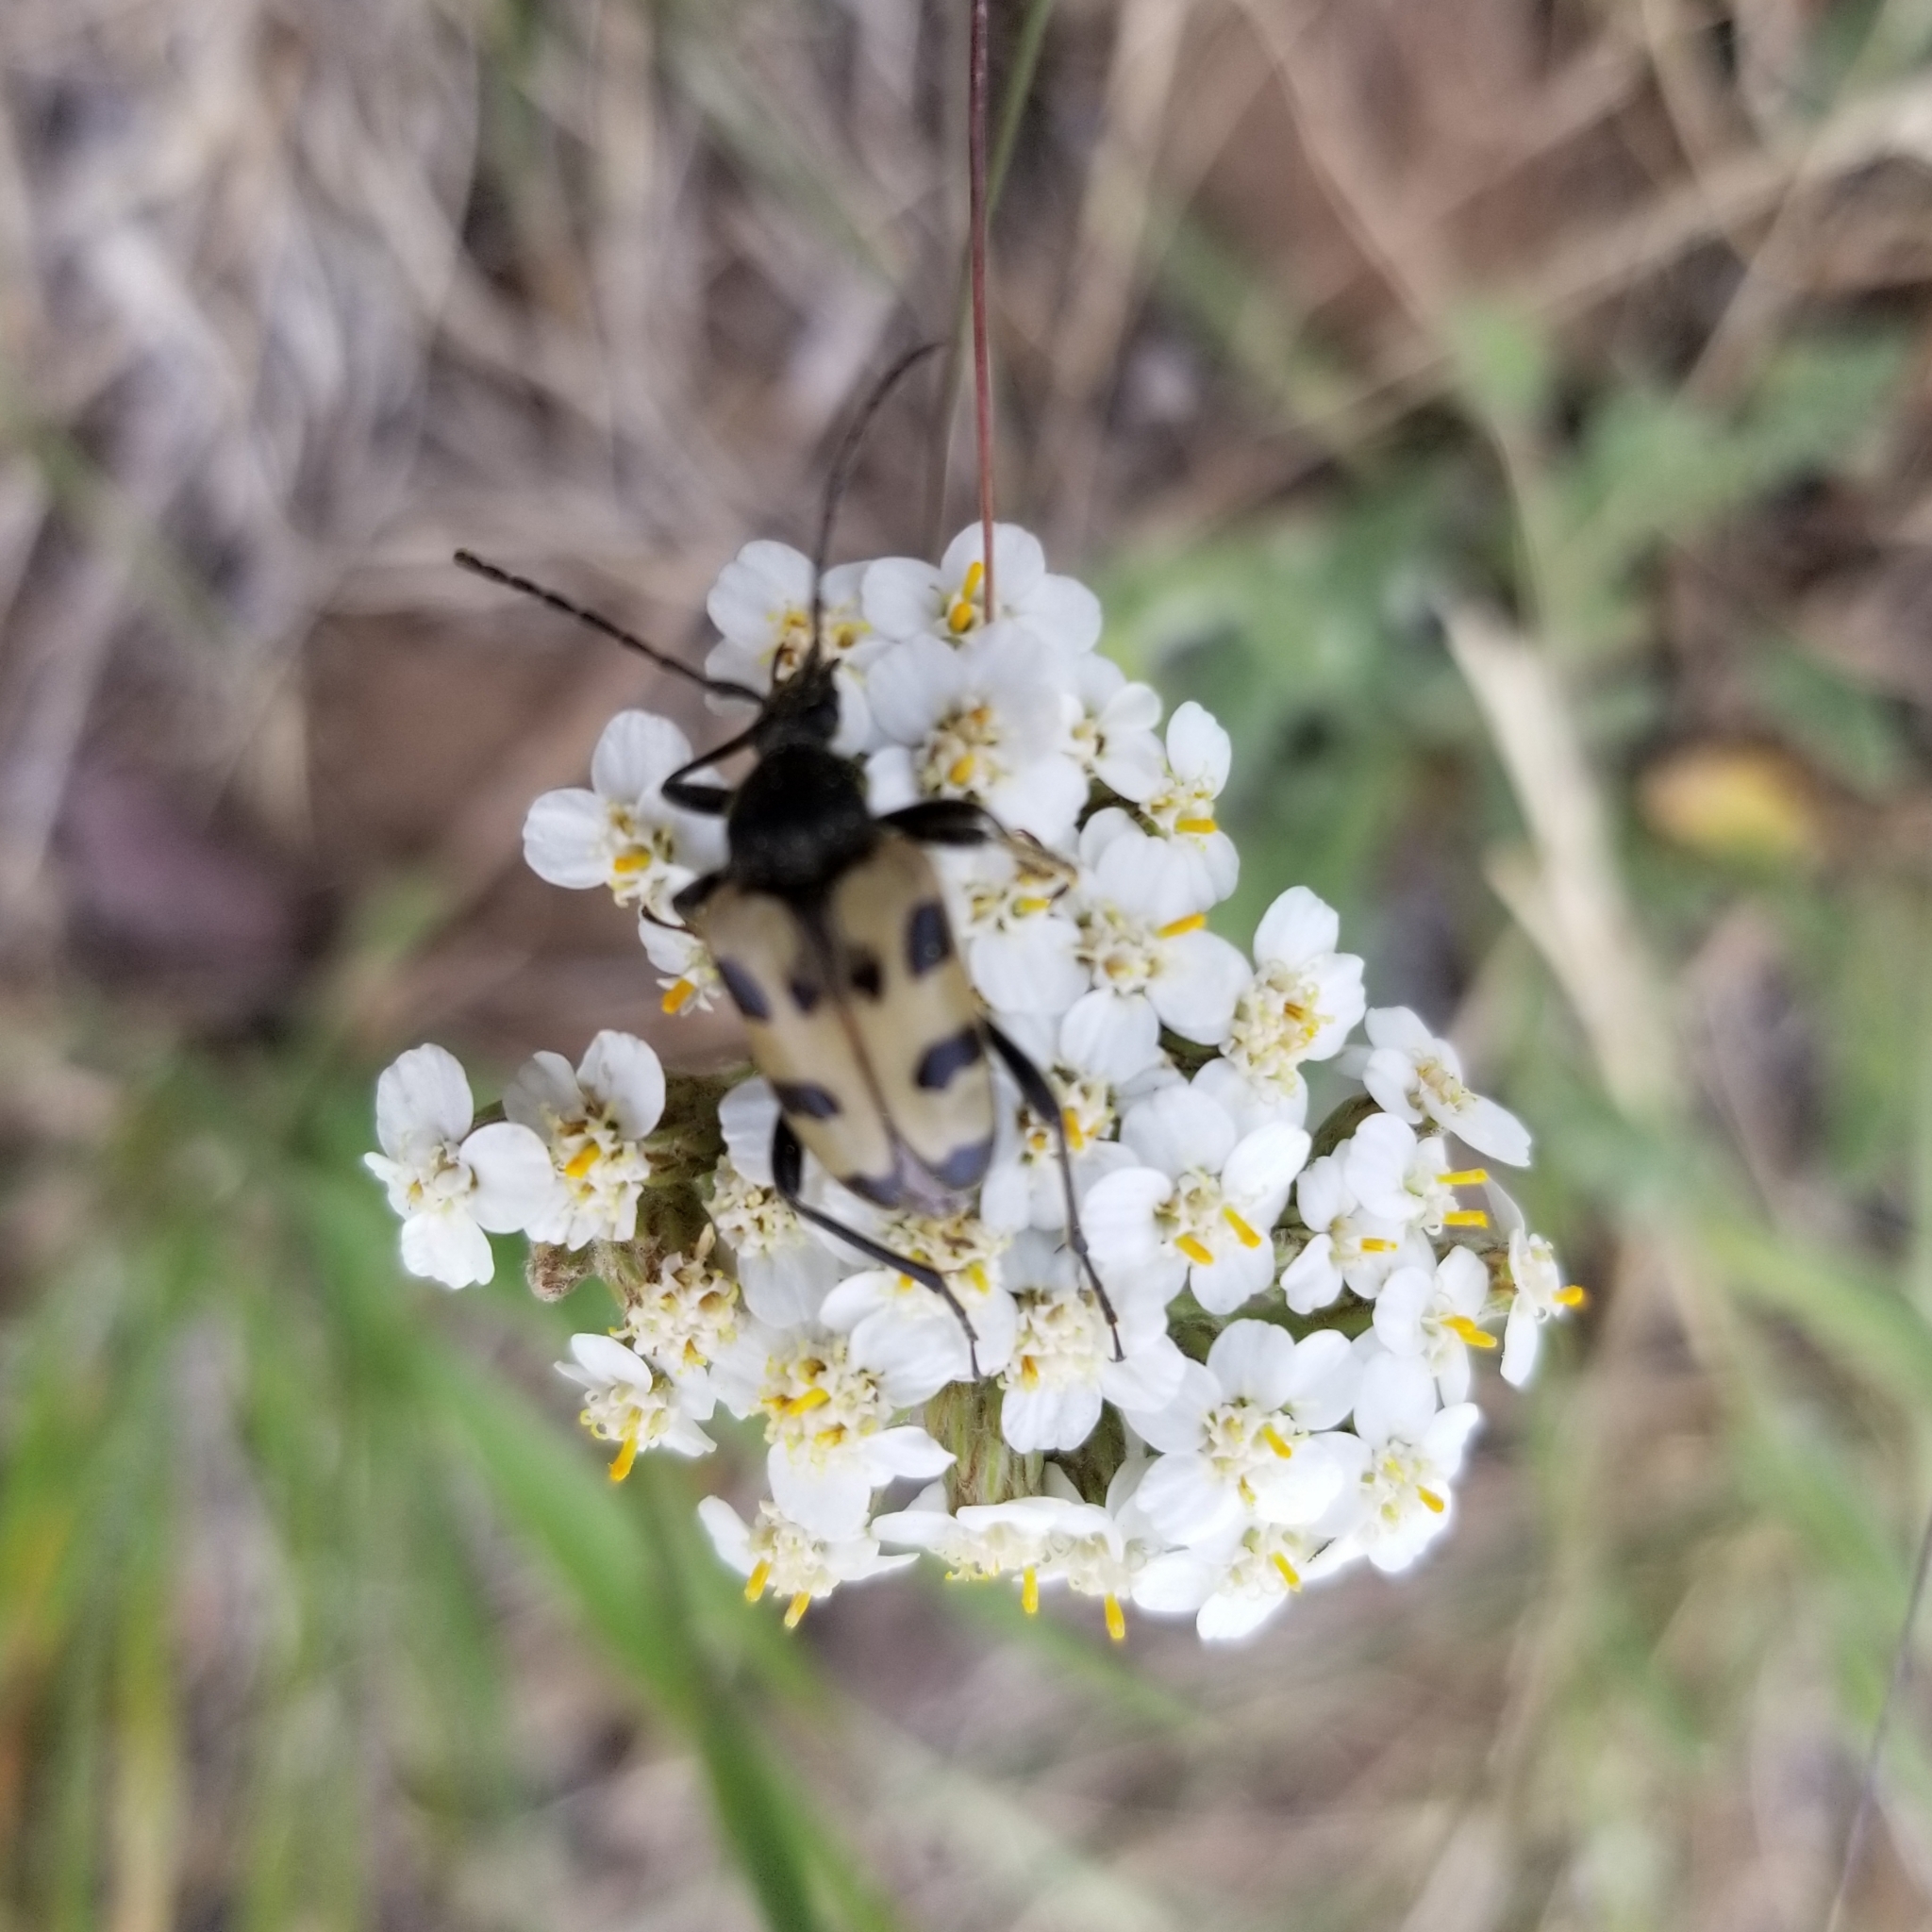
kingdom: Animalia
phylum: Arthropoda
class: Insecta
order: Coleoptera
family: Cerambycidae
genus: Judolia
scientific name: Judolia instabilis
